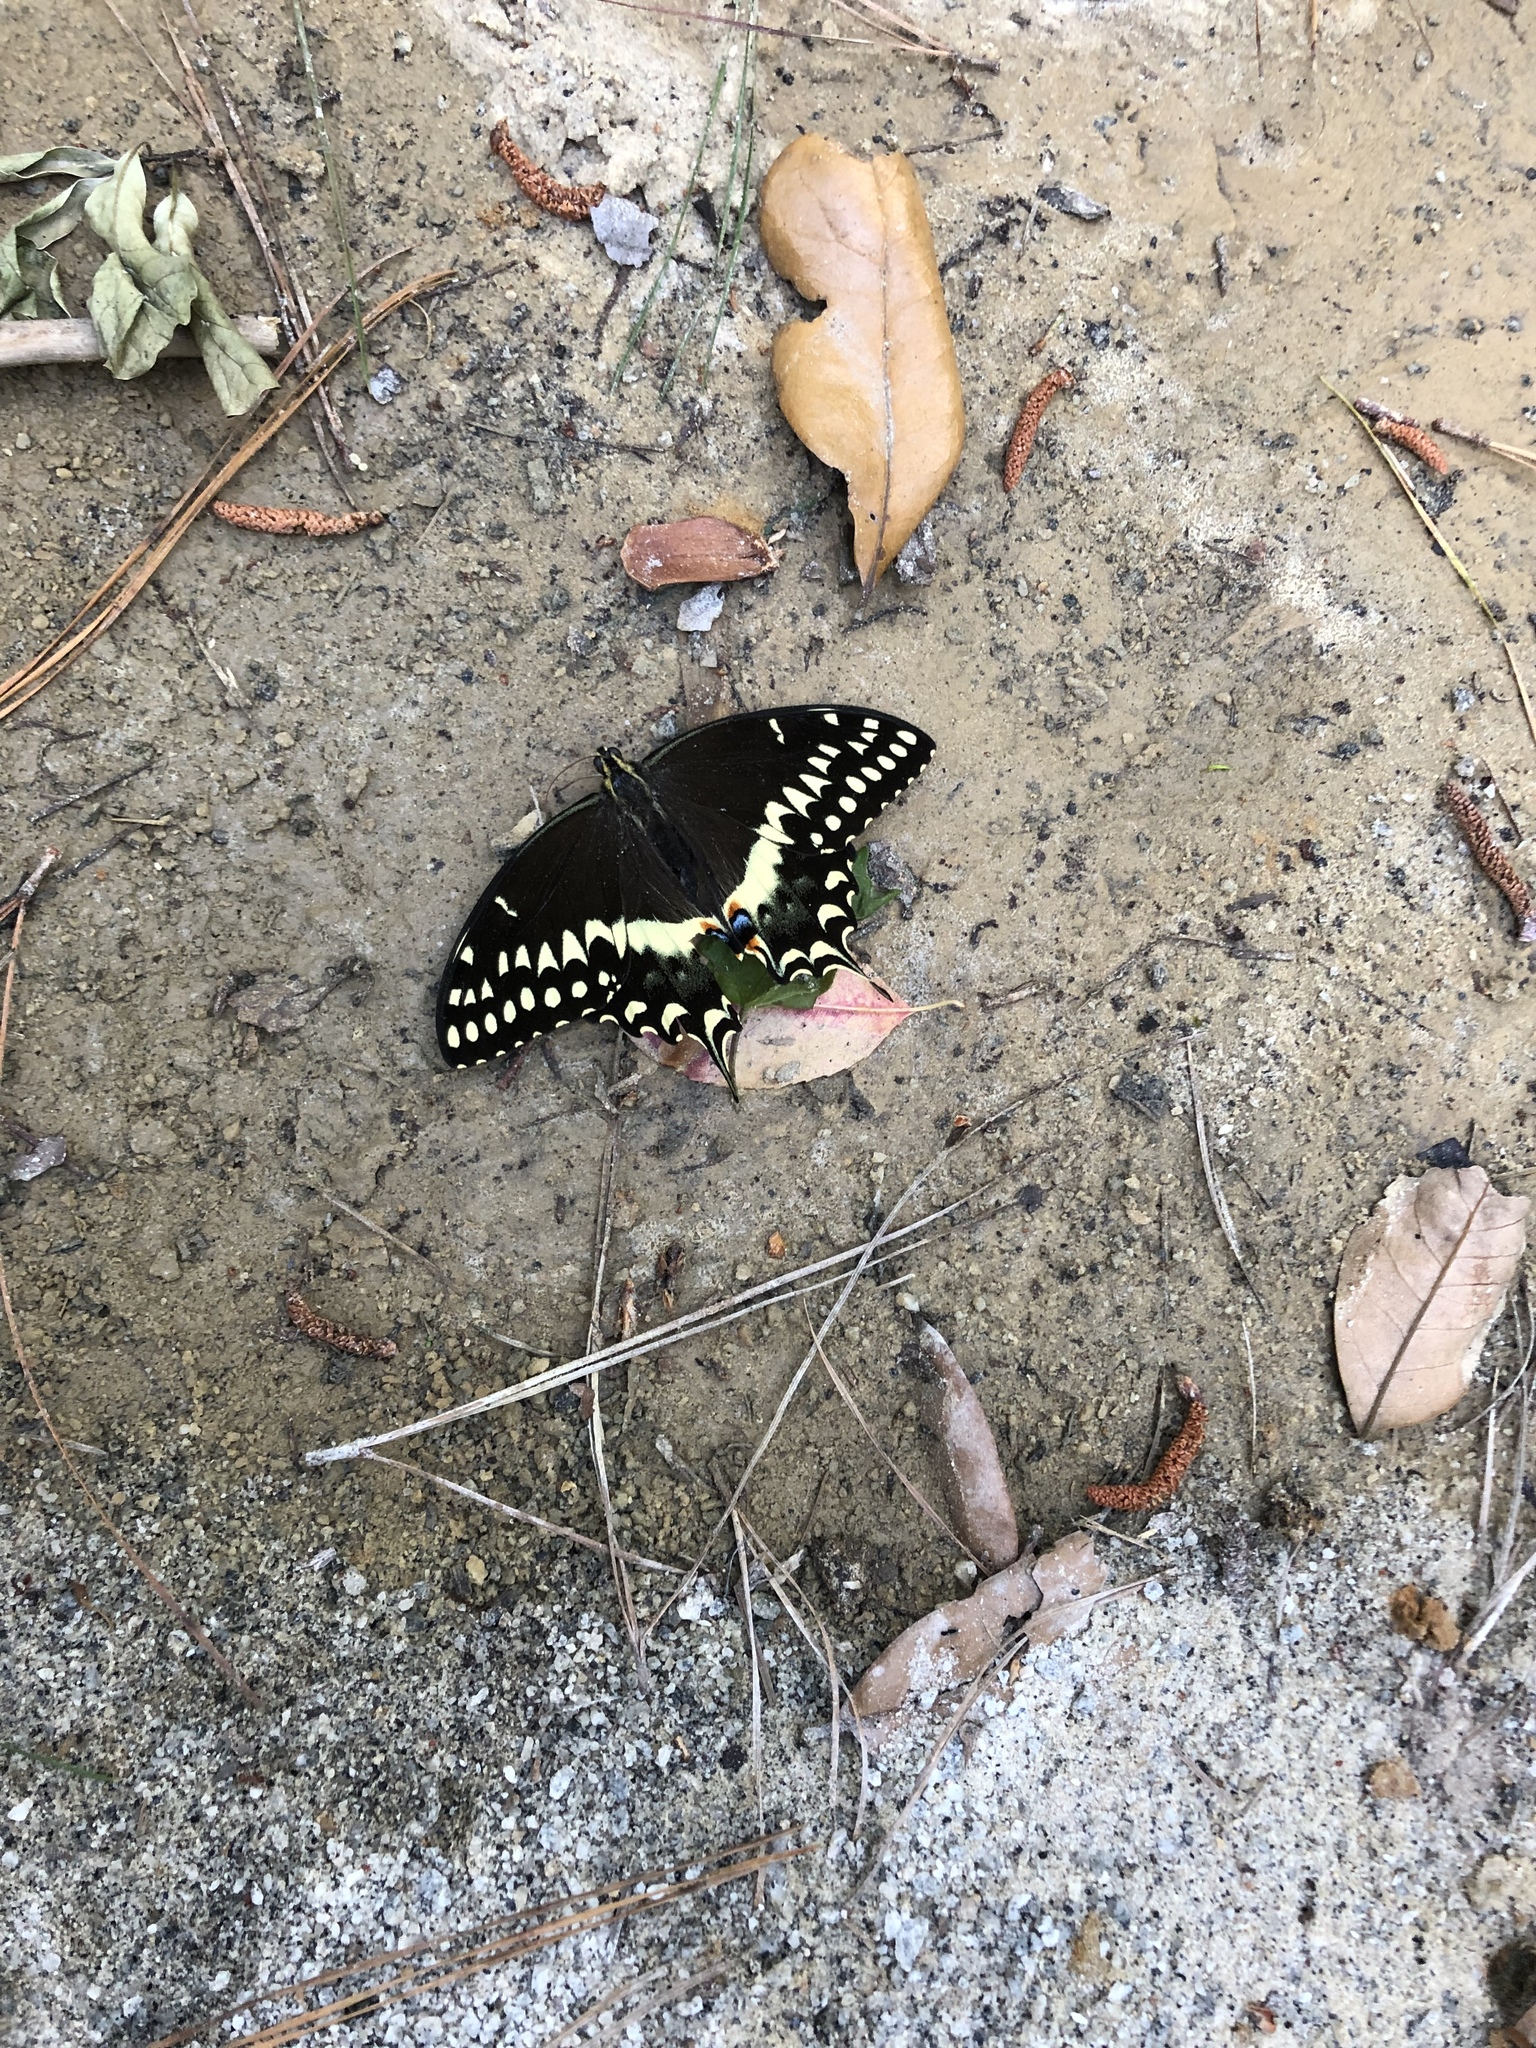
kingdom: Animalia
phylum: Arthropoda
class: Insecta
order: Lepidoptera
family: Papilionidae
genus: Papilio
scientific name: Papilio palamedes
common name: Palamedes swallowtail
